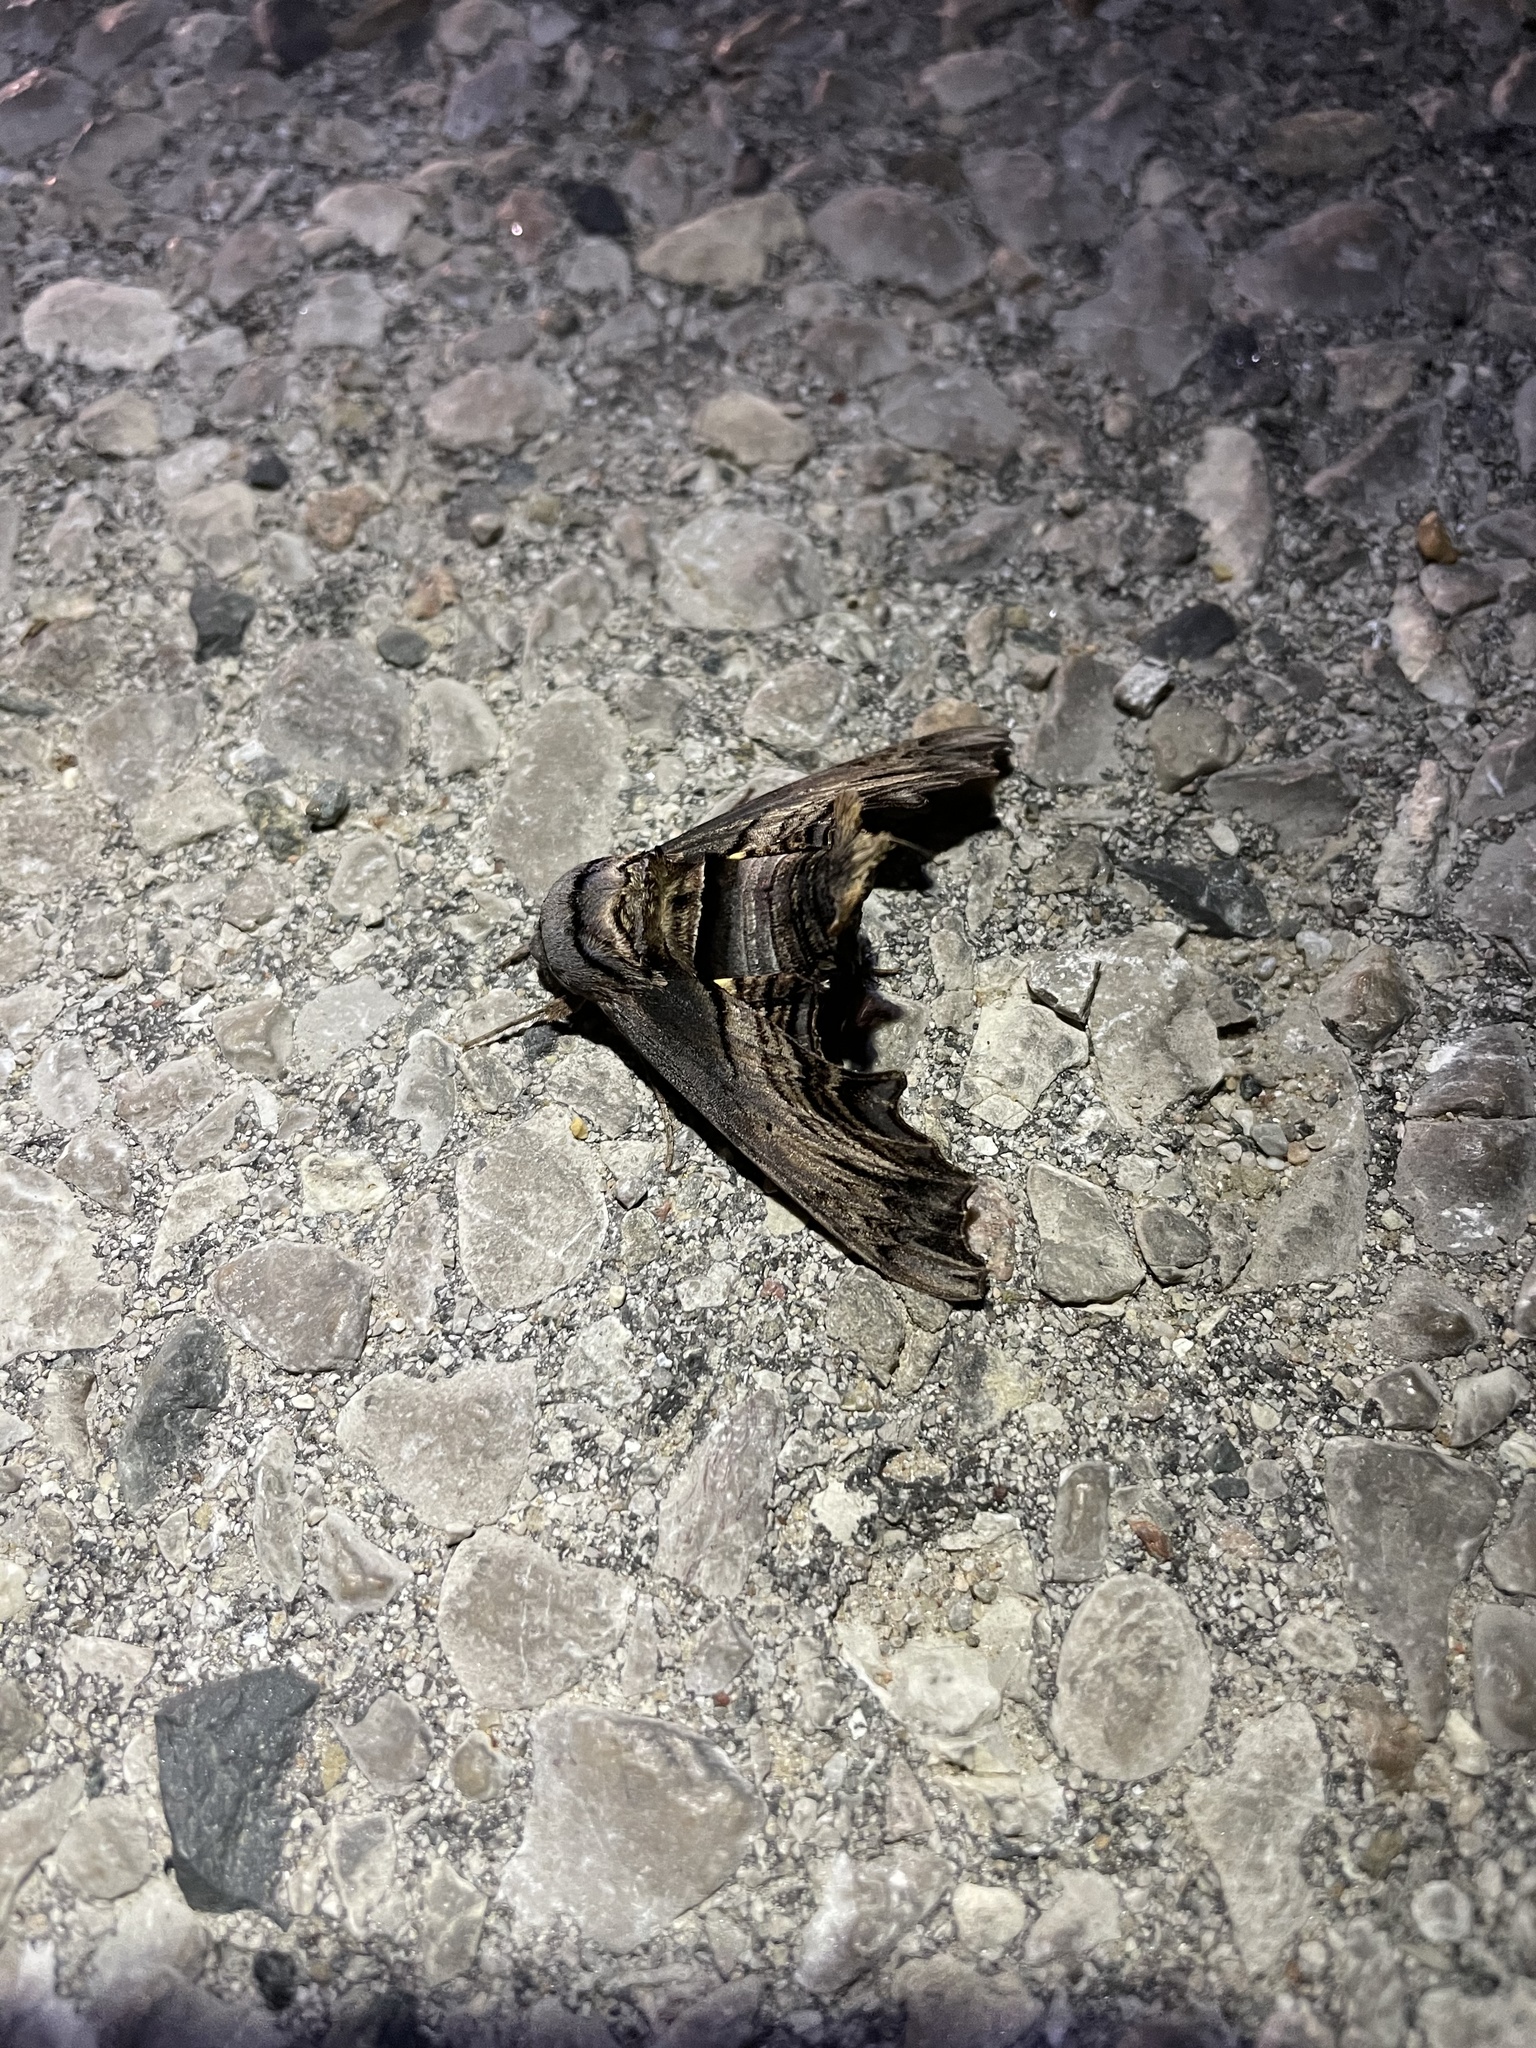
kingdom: Animalia
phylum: Arthropoda
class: Insecta
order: Lepidoptera
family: Sphingidae
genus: Sphecodina
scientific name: Sphecodina abbottii
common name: Abbott's sphinx
